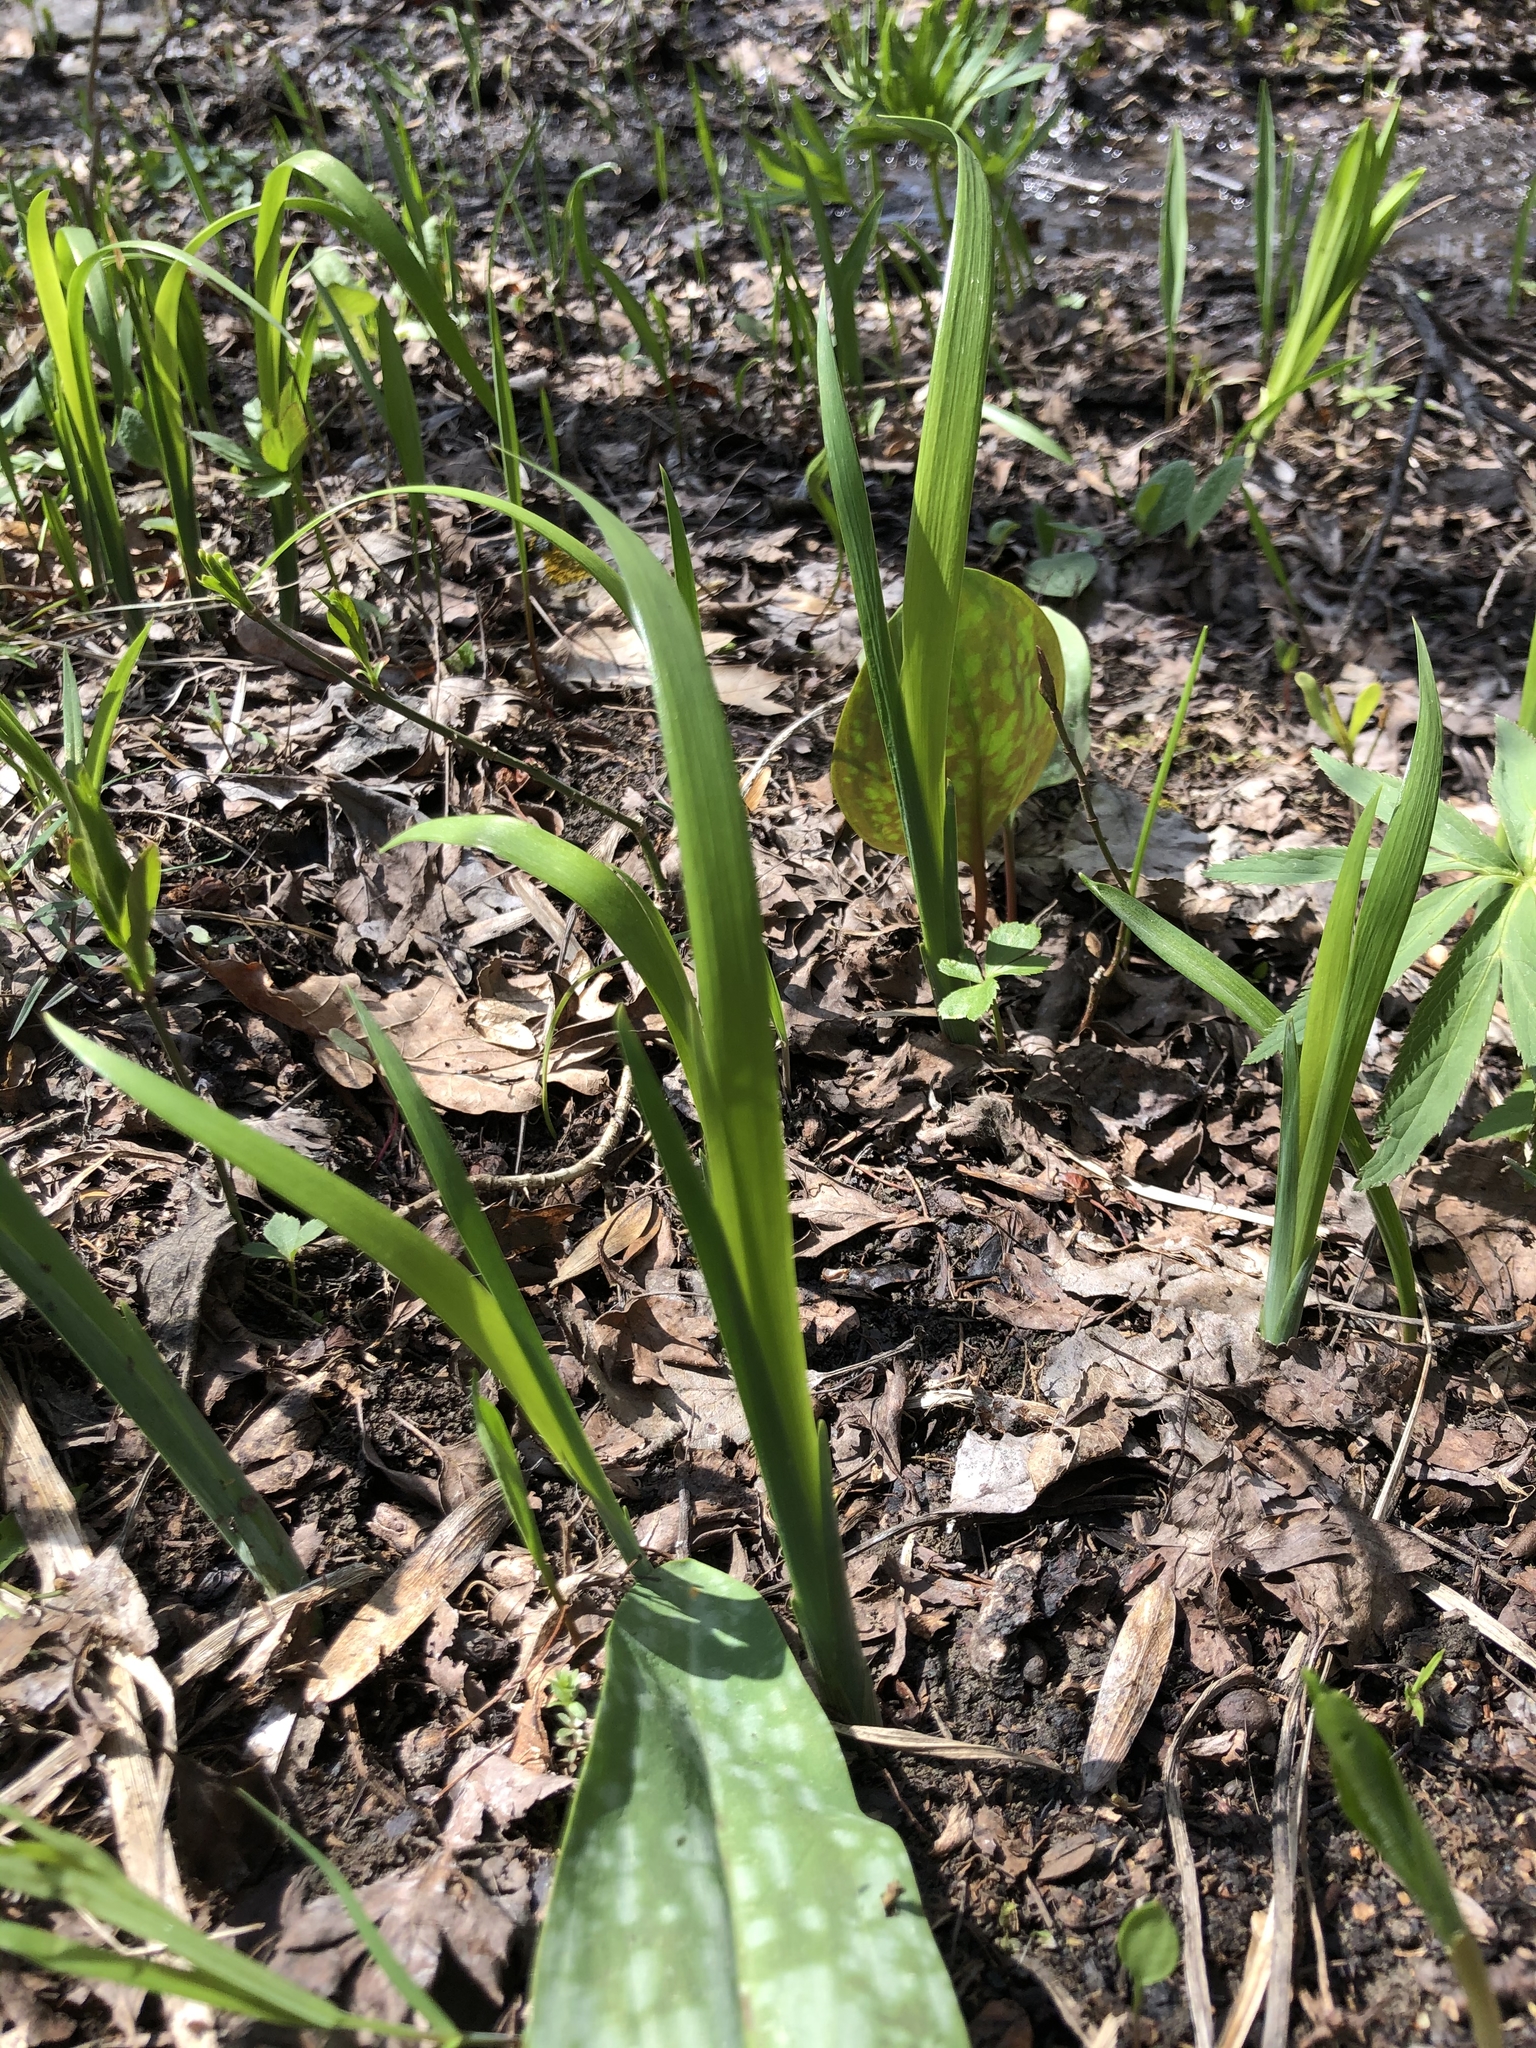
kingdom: Plantae
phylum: Tracheophyta
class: Liliopsida
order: Asparagales
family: Iridaceae
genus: Iris
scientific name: Iris graminea
